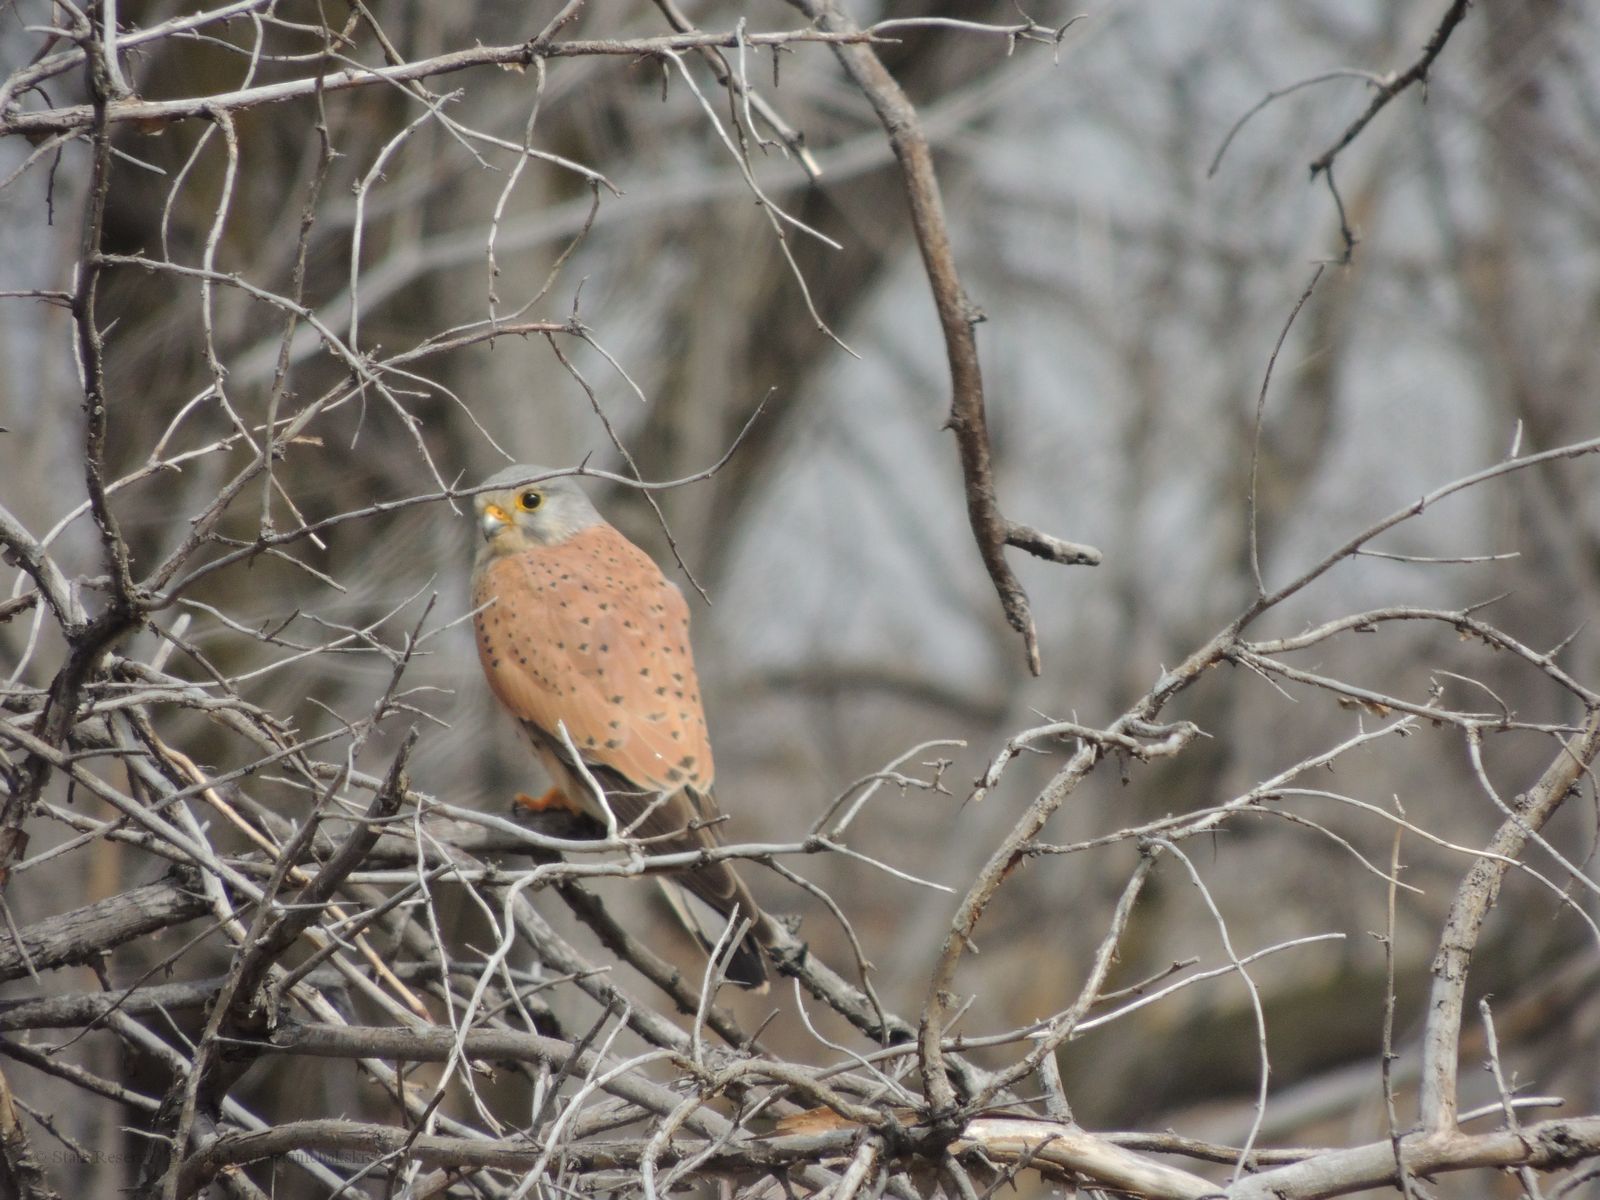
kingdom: Animalia
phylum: Chordata
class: Aves
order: Falconiformes
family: Falconidae
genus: Falco
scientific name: Falco tinnunculus
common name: Common kestrel
